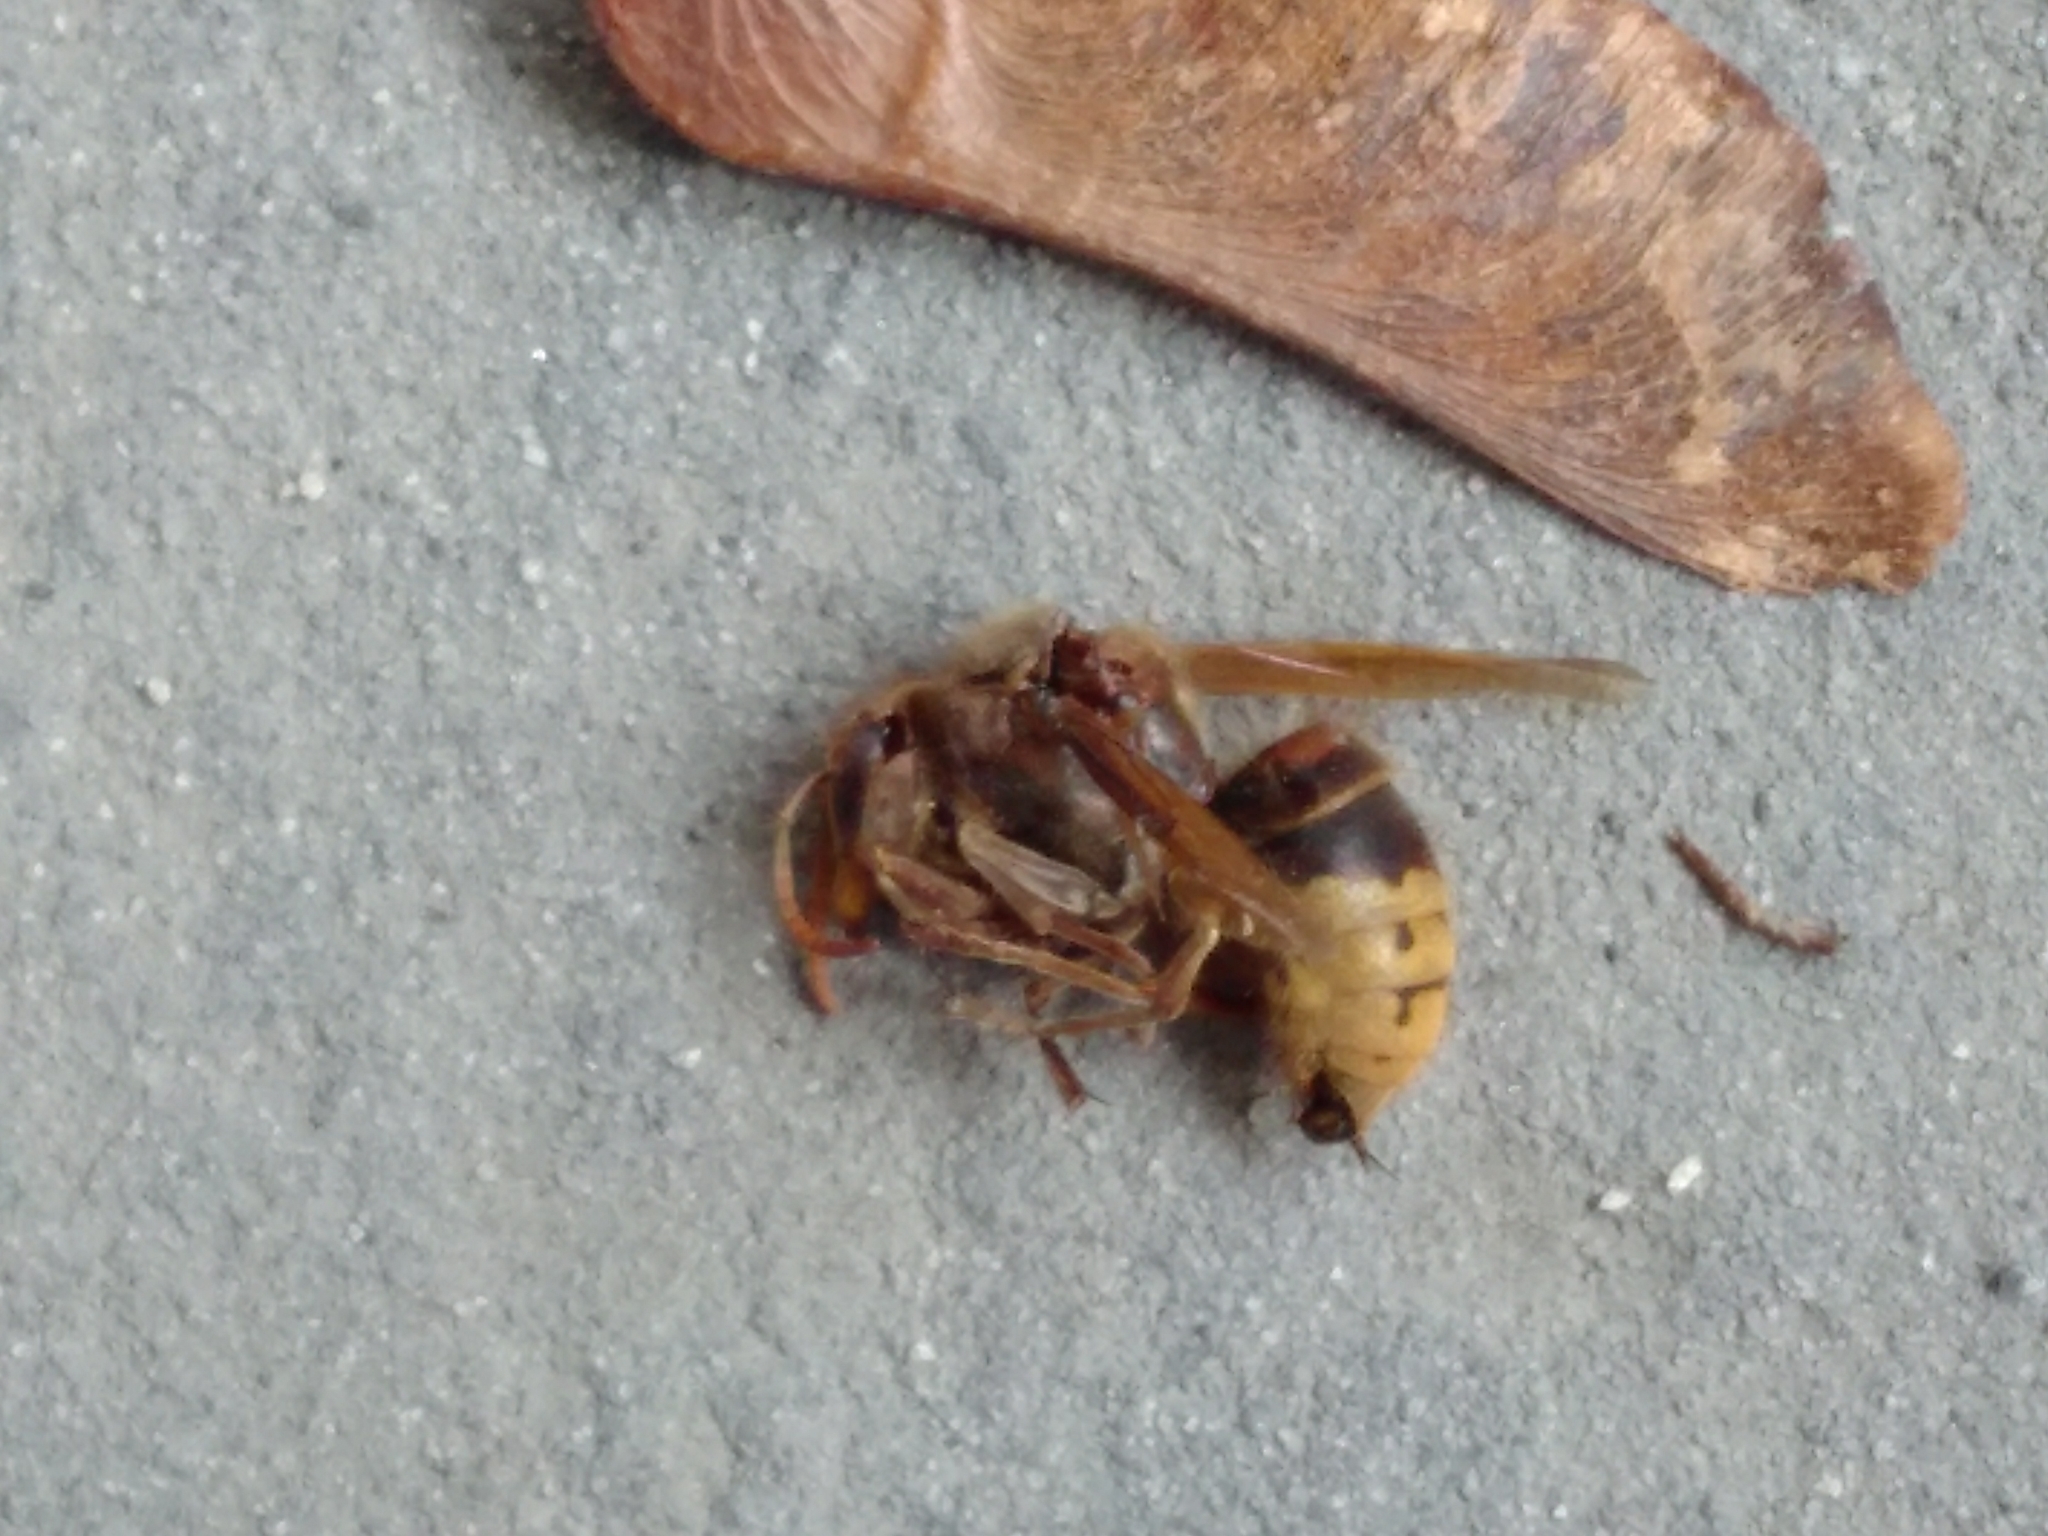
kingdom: Animalia
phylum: Arthropoda
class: Insecta
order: Hymenoptera
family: Vespidae
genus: Vespa
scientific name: Vespa crabro
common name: Hornet
